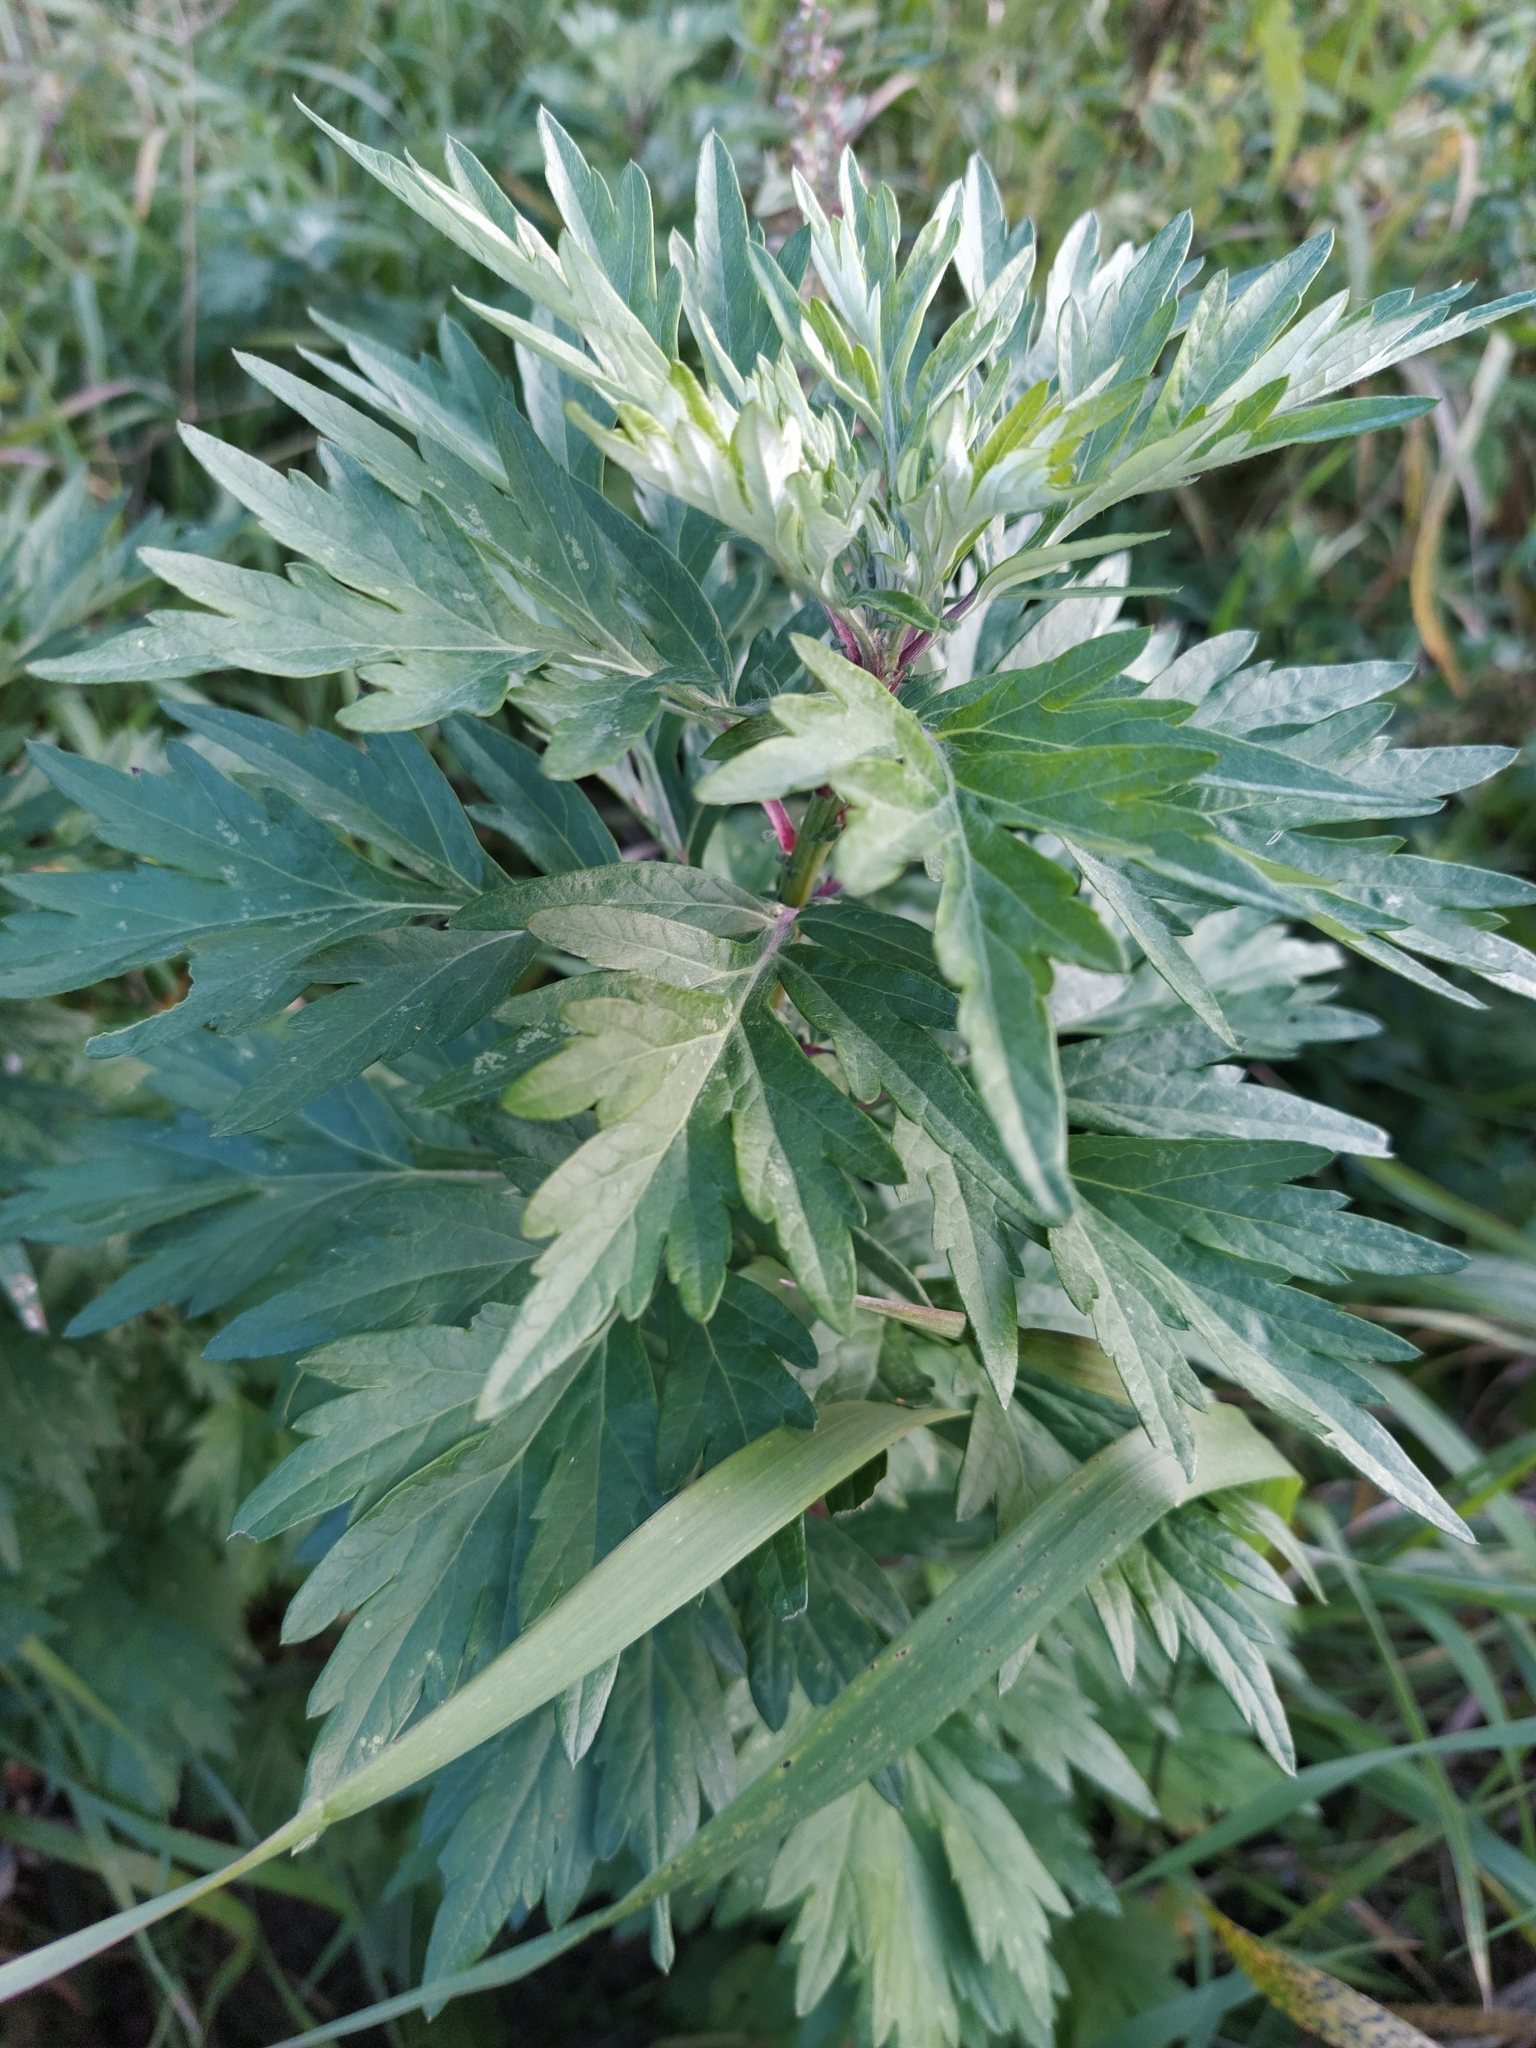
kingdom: Plantae
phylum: Tracheophyta
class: Magnoliopsida
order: Asterales
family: Asteraceae
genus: Artemisia
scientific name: Artemisia vulgaris
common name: Mugwort
